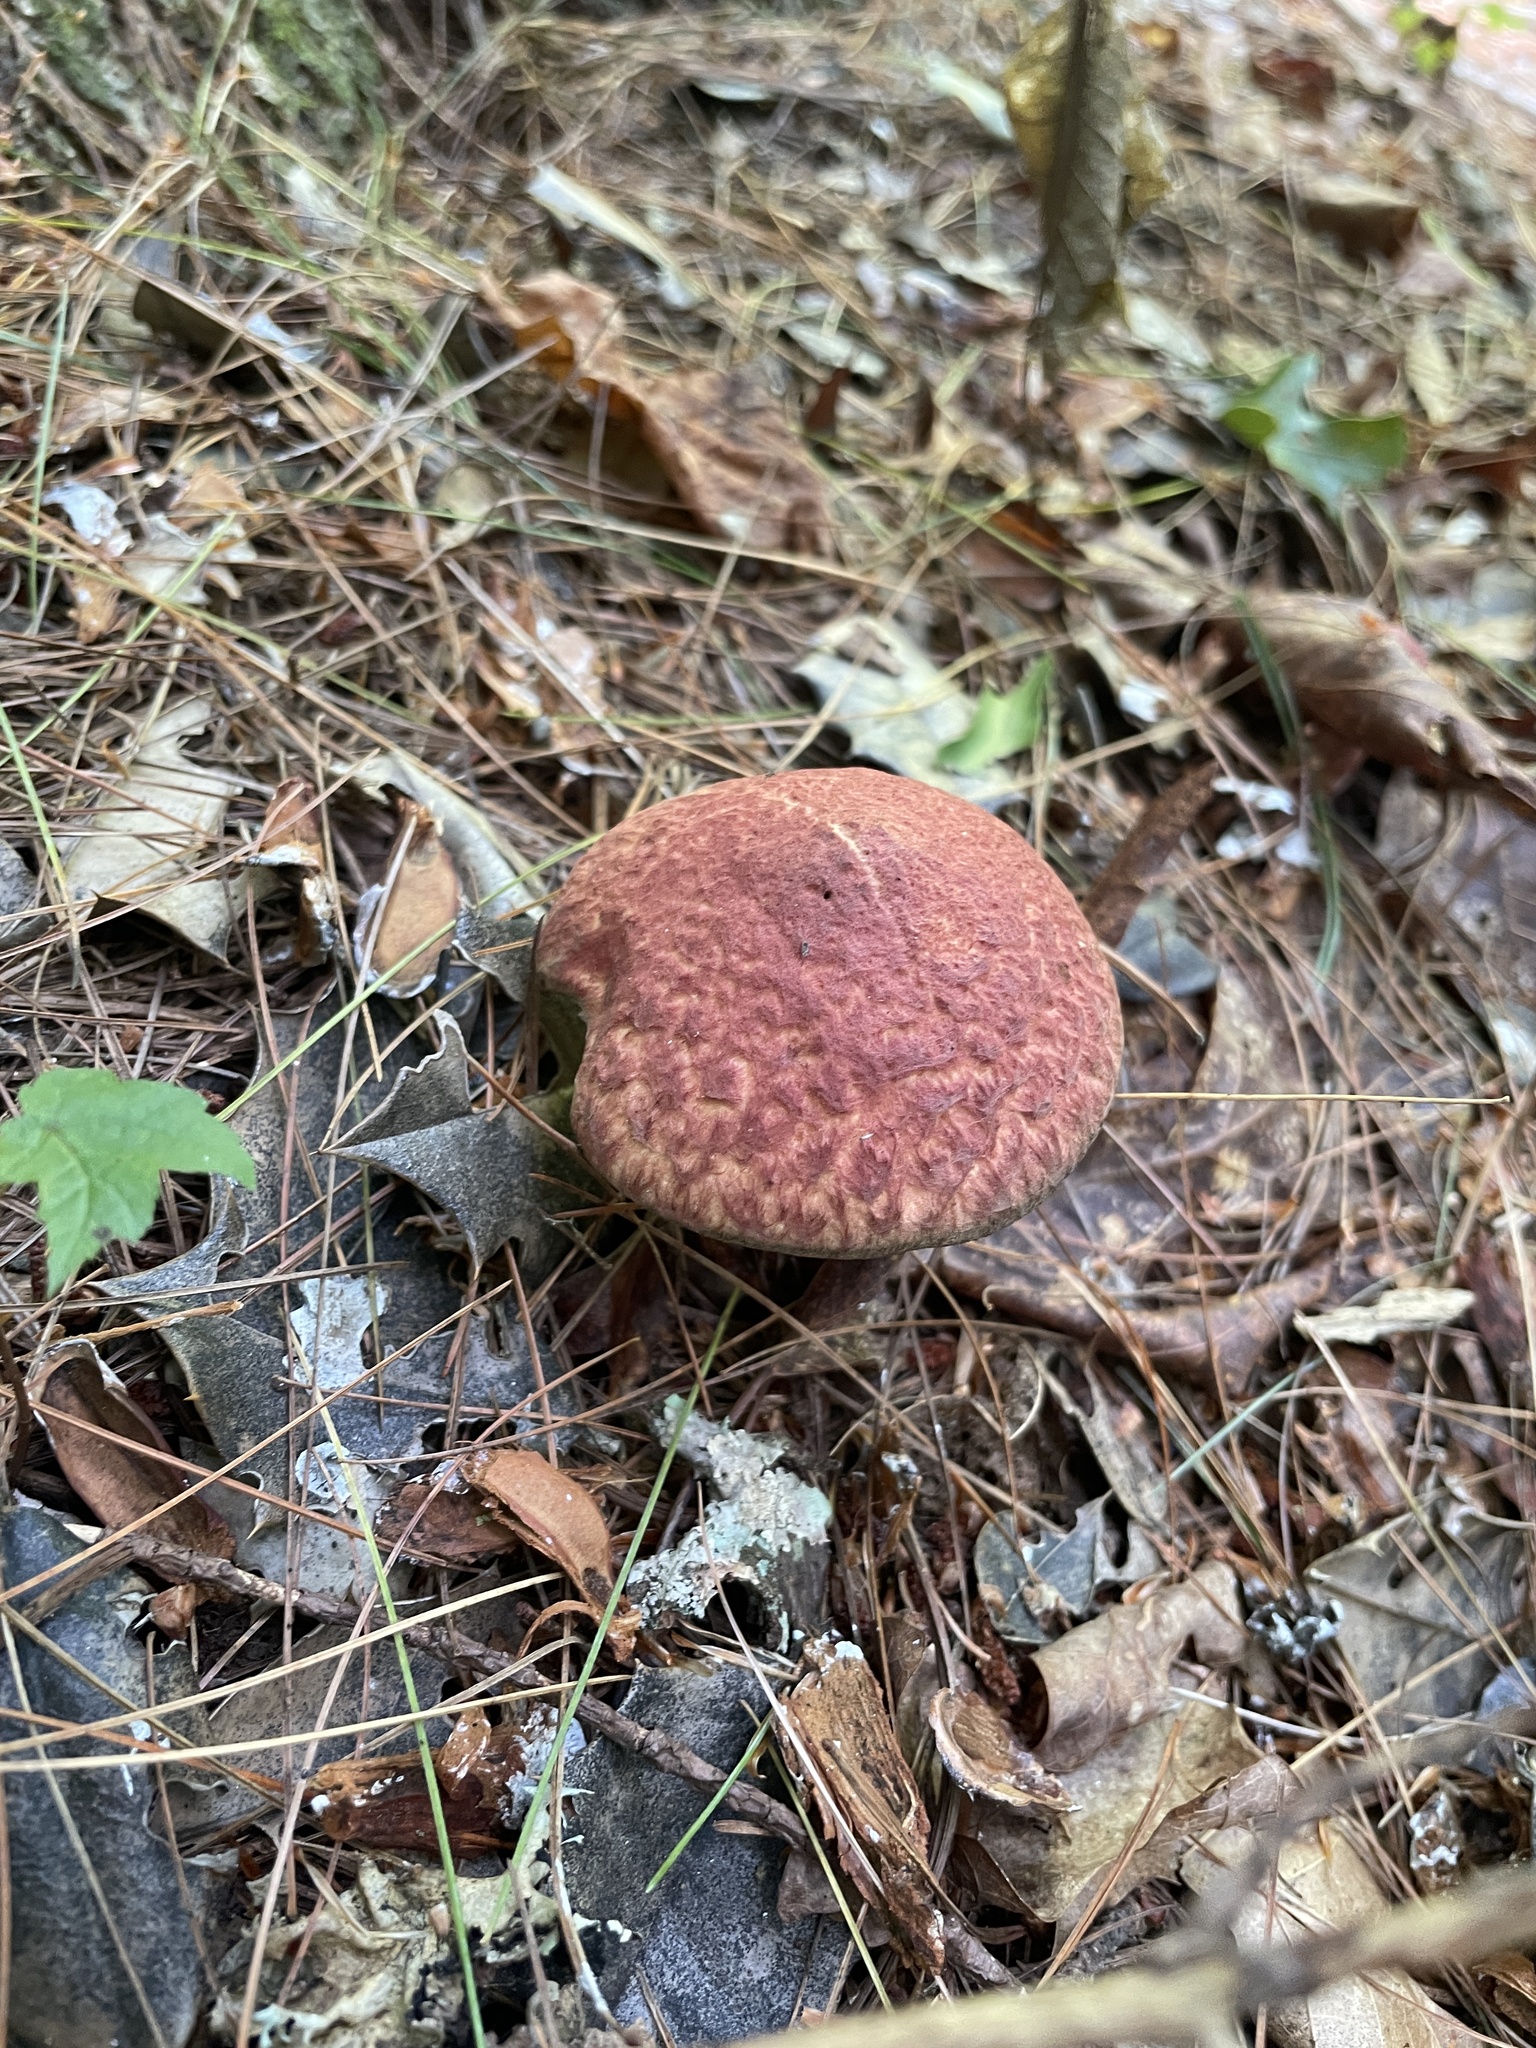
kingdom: Fungi
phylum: Basidiomycota
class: Agaricomycetes
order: Boletales
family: Suillaceae
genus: Suillus
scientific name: Suillus spraguei
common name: Painted suillus
